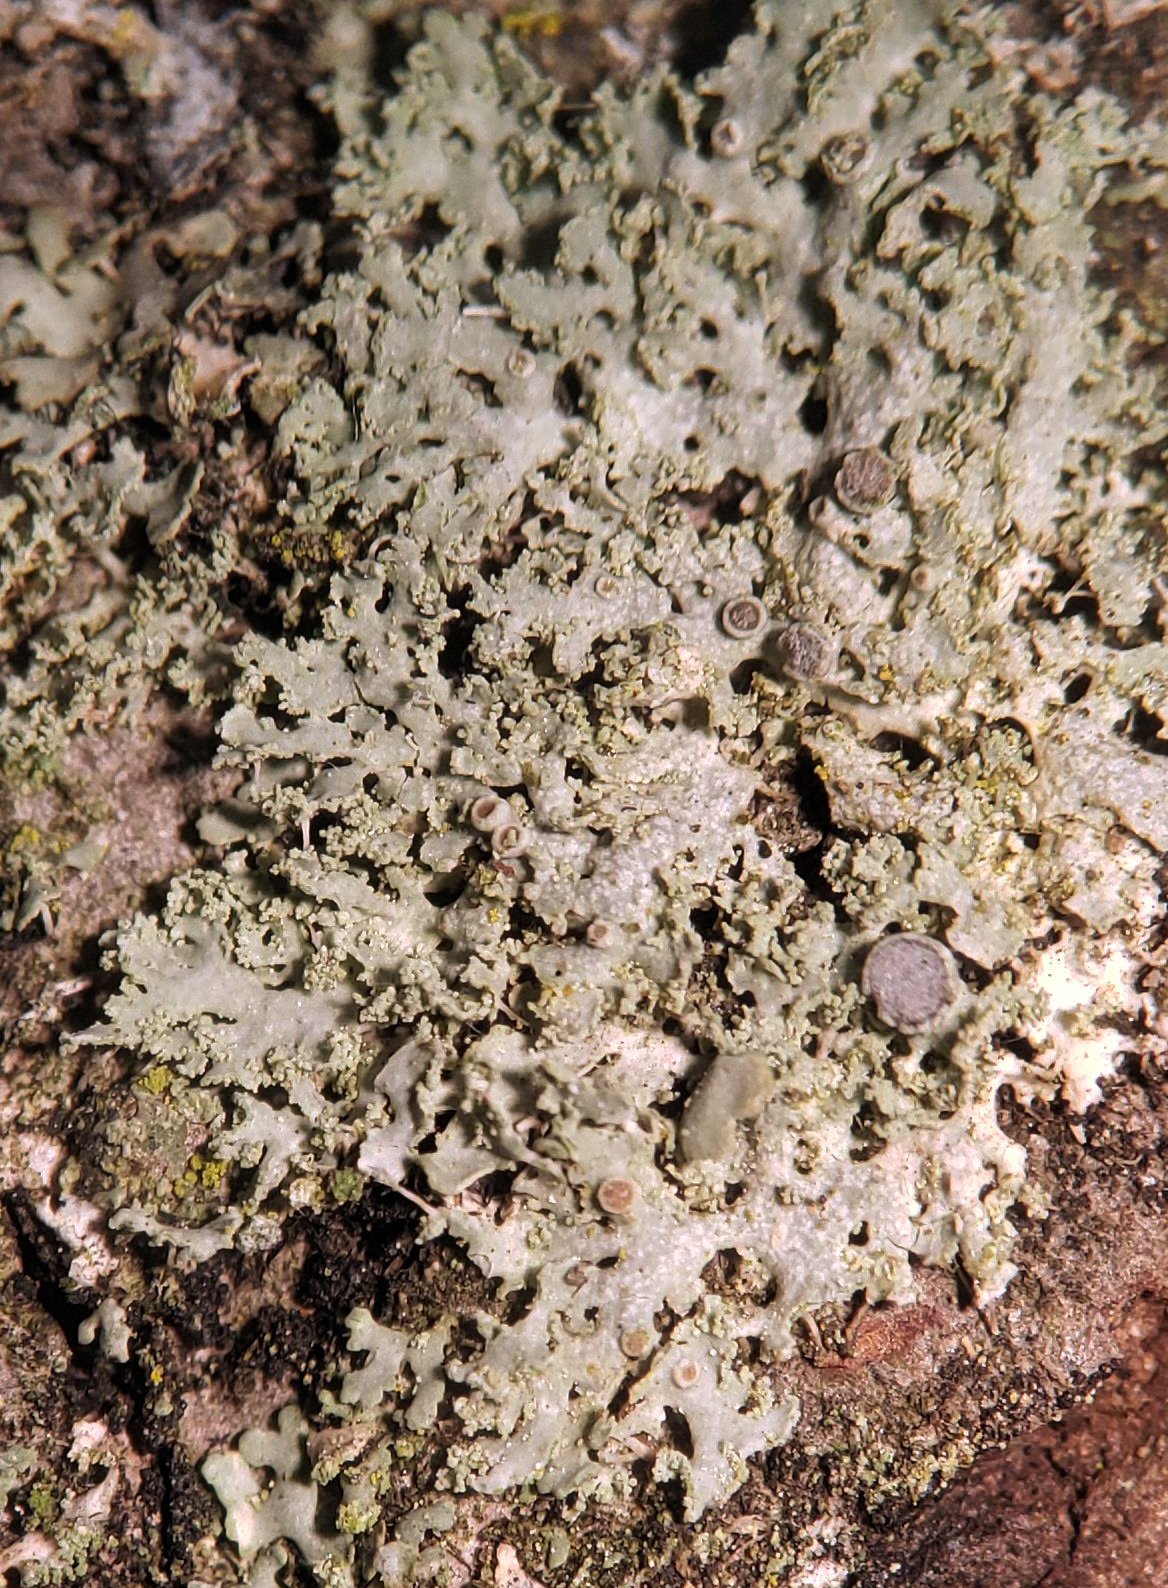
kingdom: Fungi
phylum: Ascomycota
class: Lecanoromycetes
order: Caliciales
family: Physciaceae
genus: Physcia
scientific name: Physcia millegrana
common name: Rosette lichen
